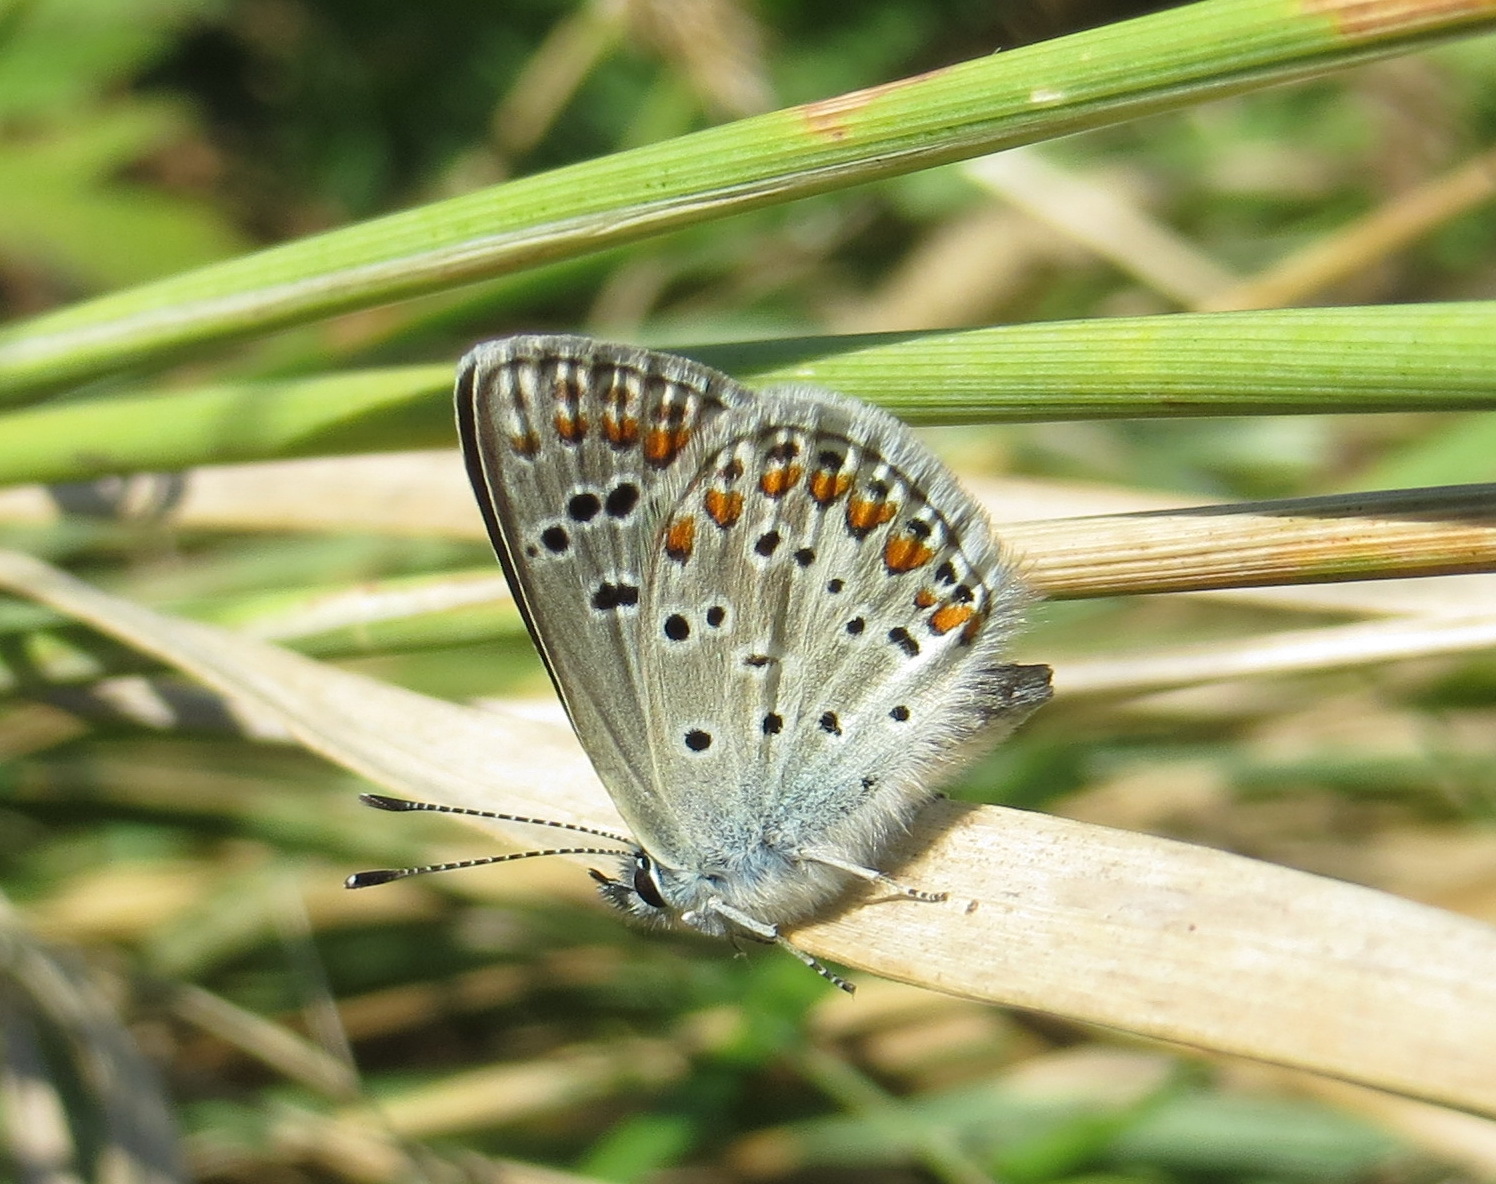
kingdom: Animalia
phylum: Arthropoda
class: Insecta
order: Lepidoptera
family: Lycaenidae
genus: Aricia
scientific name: Aricia artaxerxes
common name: Northern brown argus
